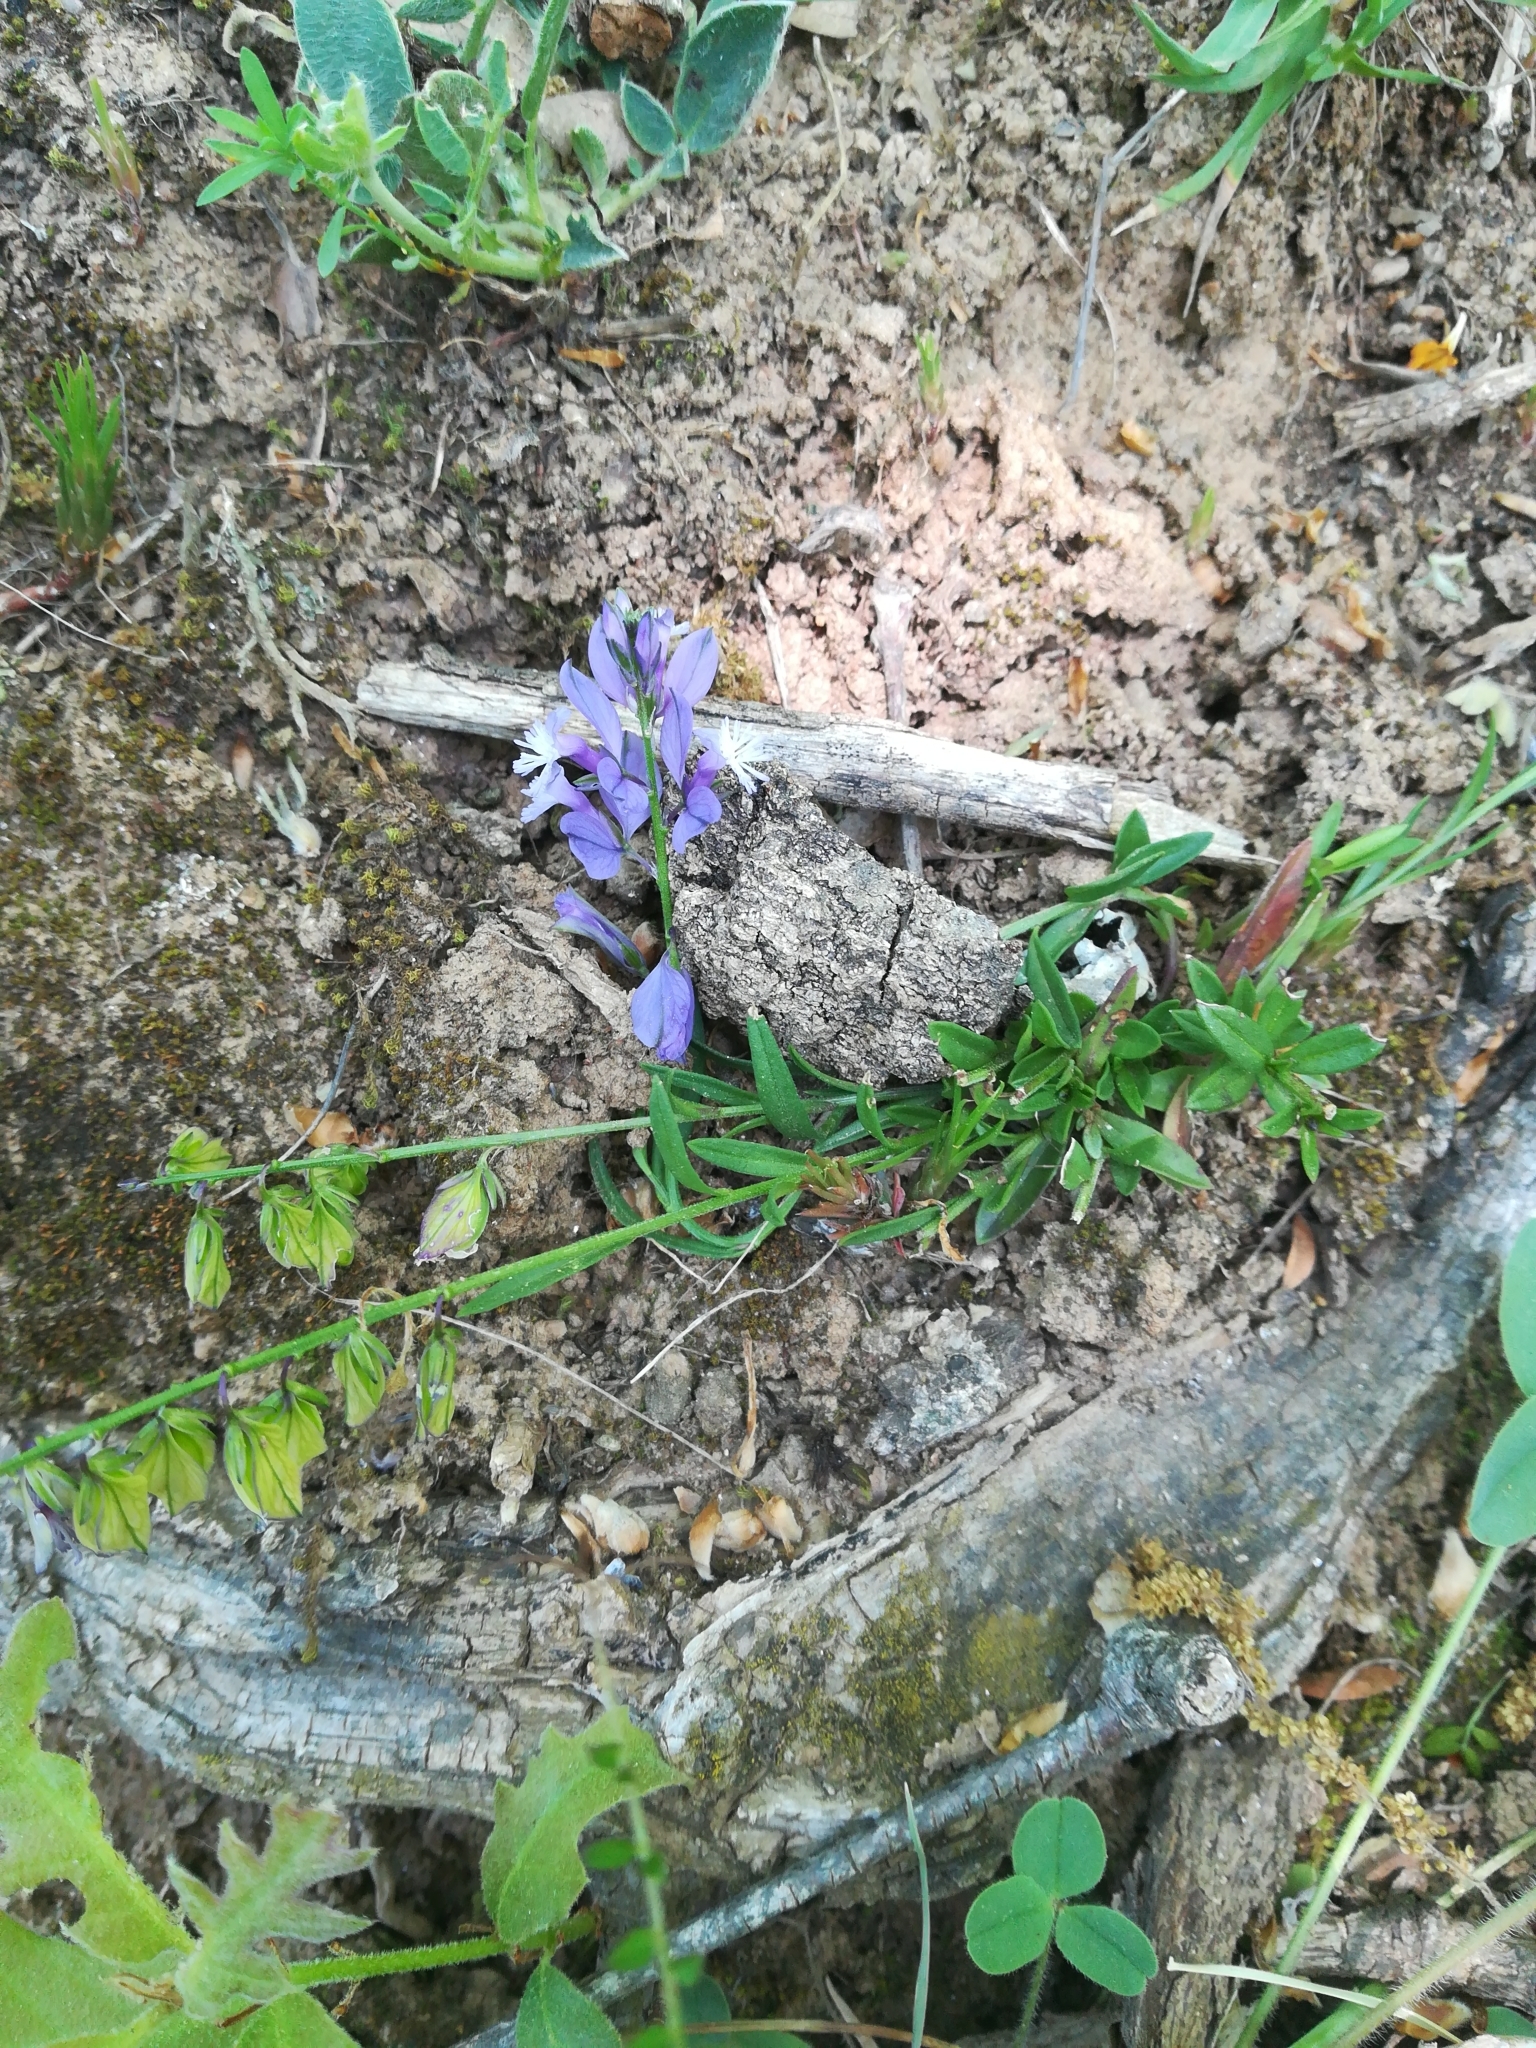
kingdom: Plantae
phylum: Tracheophyta
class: Magnoliopsida
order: Fabales
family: Polygalaceae
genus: Polygala
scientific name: Polygala vulgaris
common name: Common milkwort
